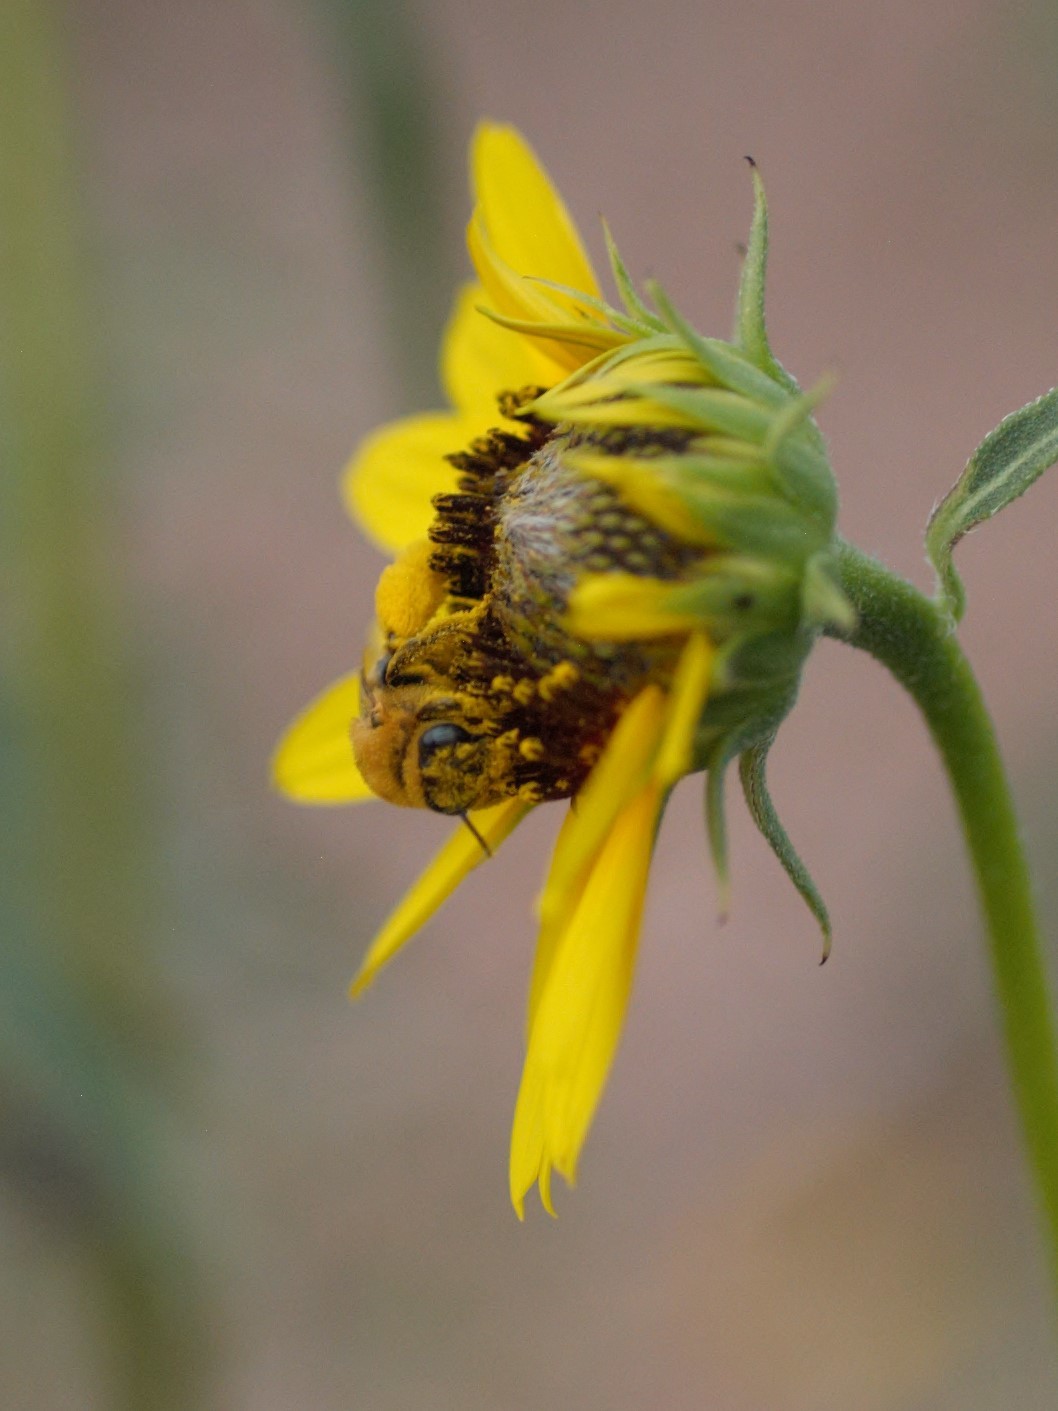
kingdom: Animalia
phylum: Arthropoda
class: Insecta
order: Hymenoptera
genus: Eumelissodes
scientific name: Eumelissodes
